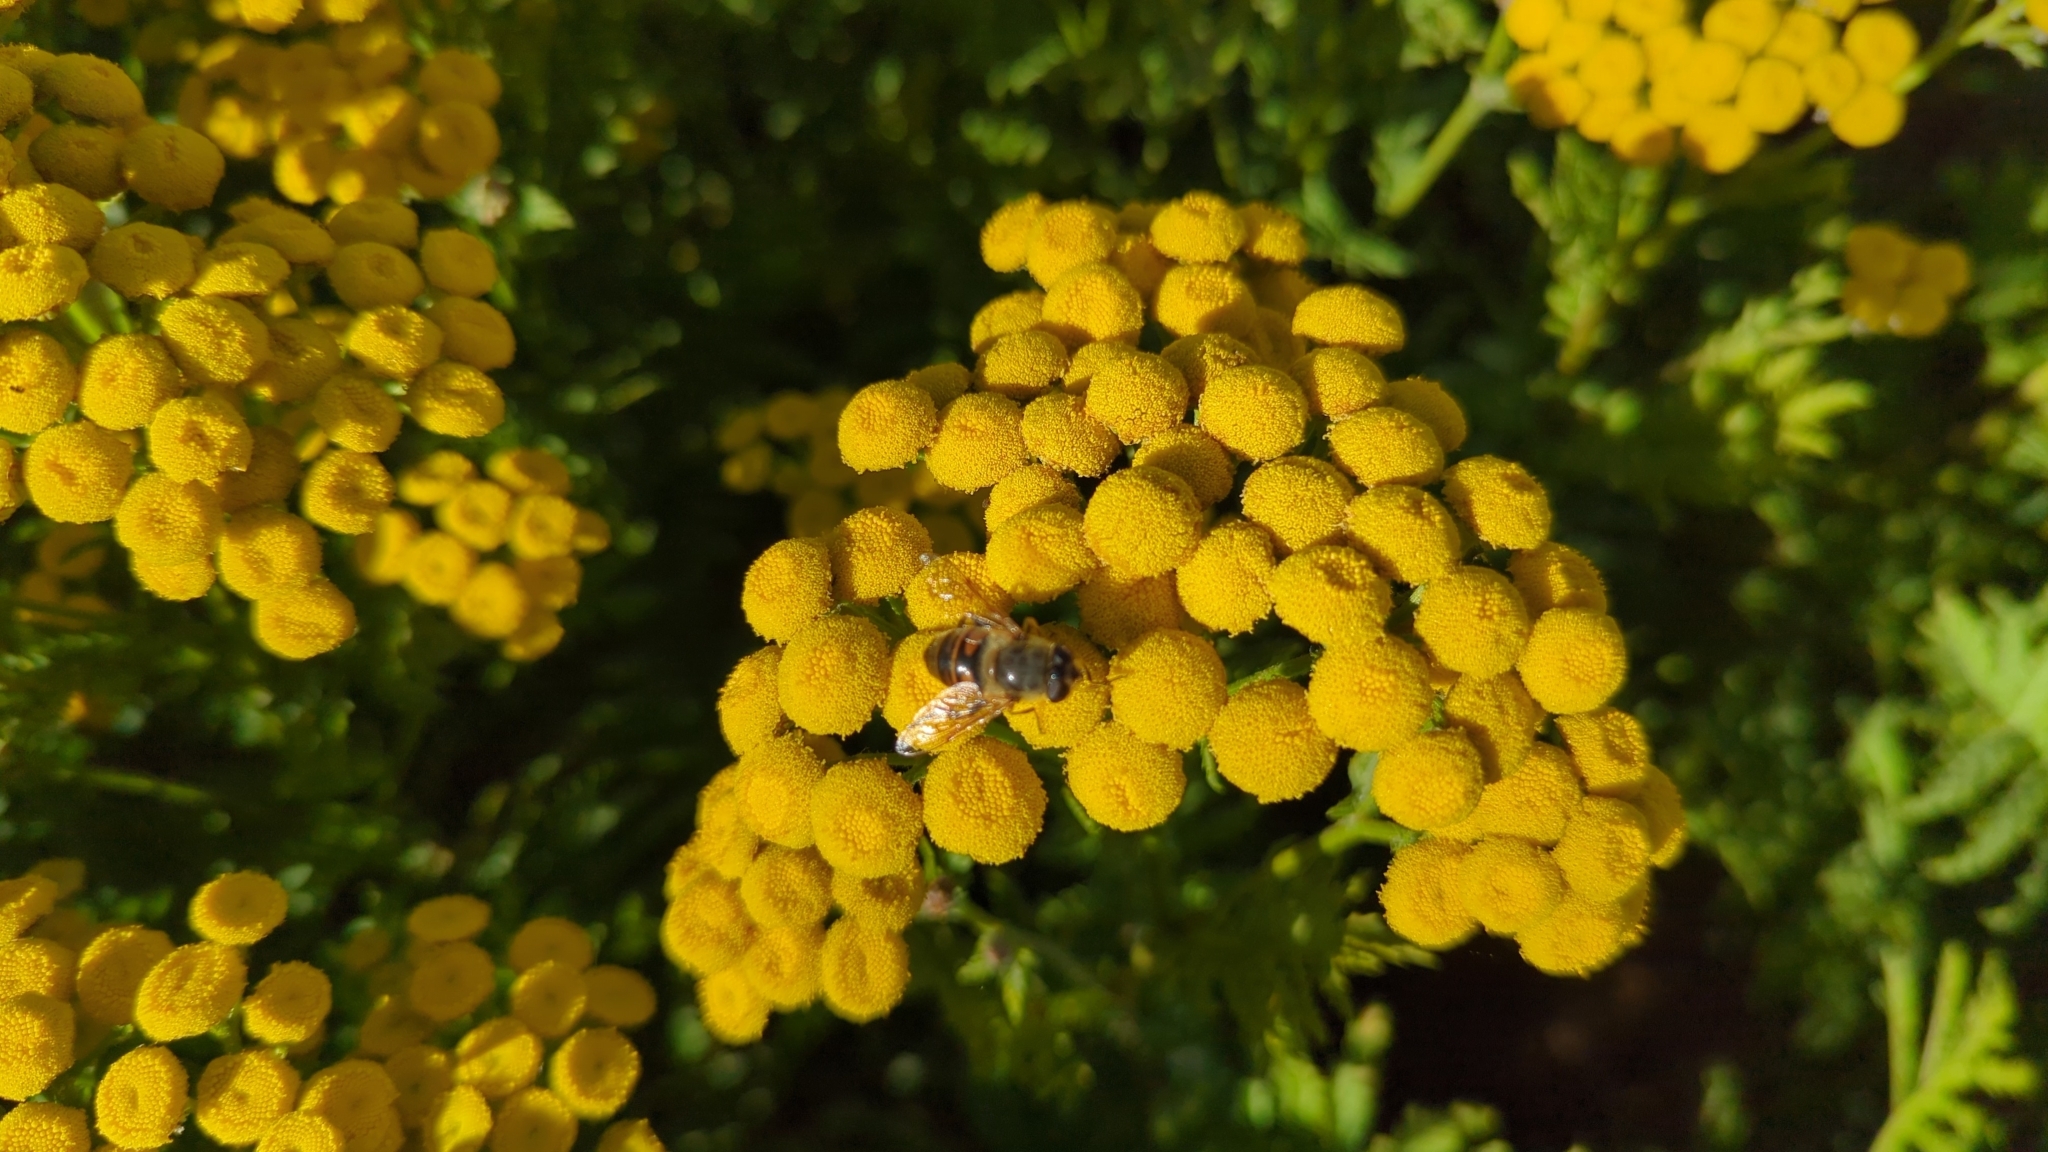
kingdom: Animalia
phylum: Arthropoda
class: Insecta
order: Diptera
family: Syrphidae
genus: Eristalis
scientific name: Eristalis tenax
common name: Drone fly
